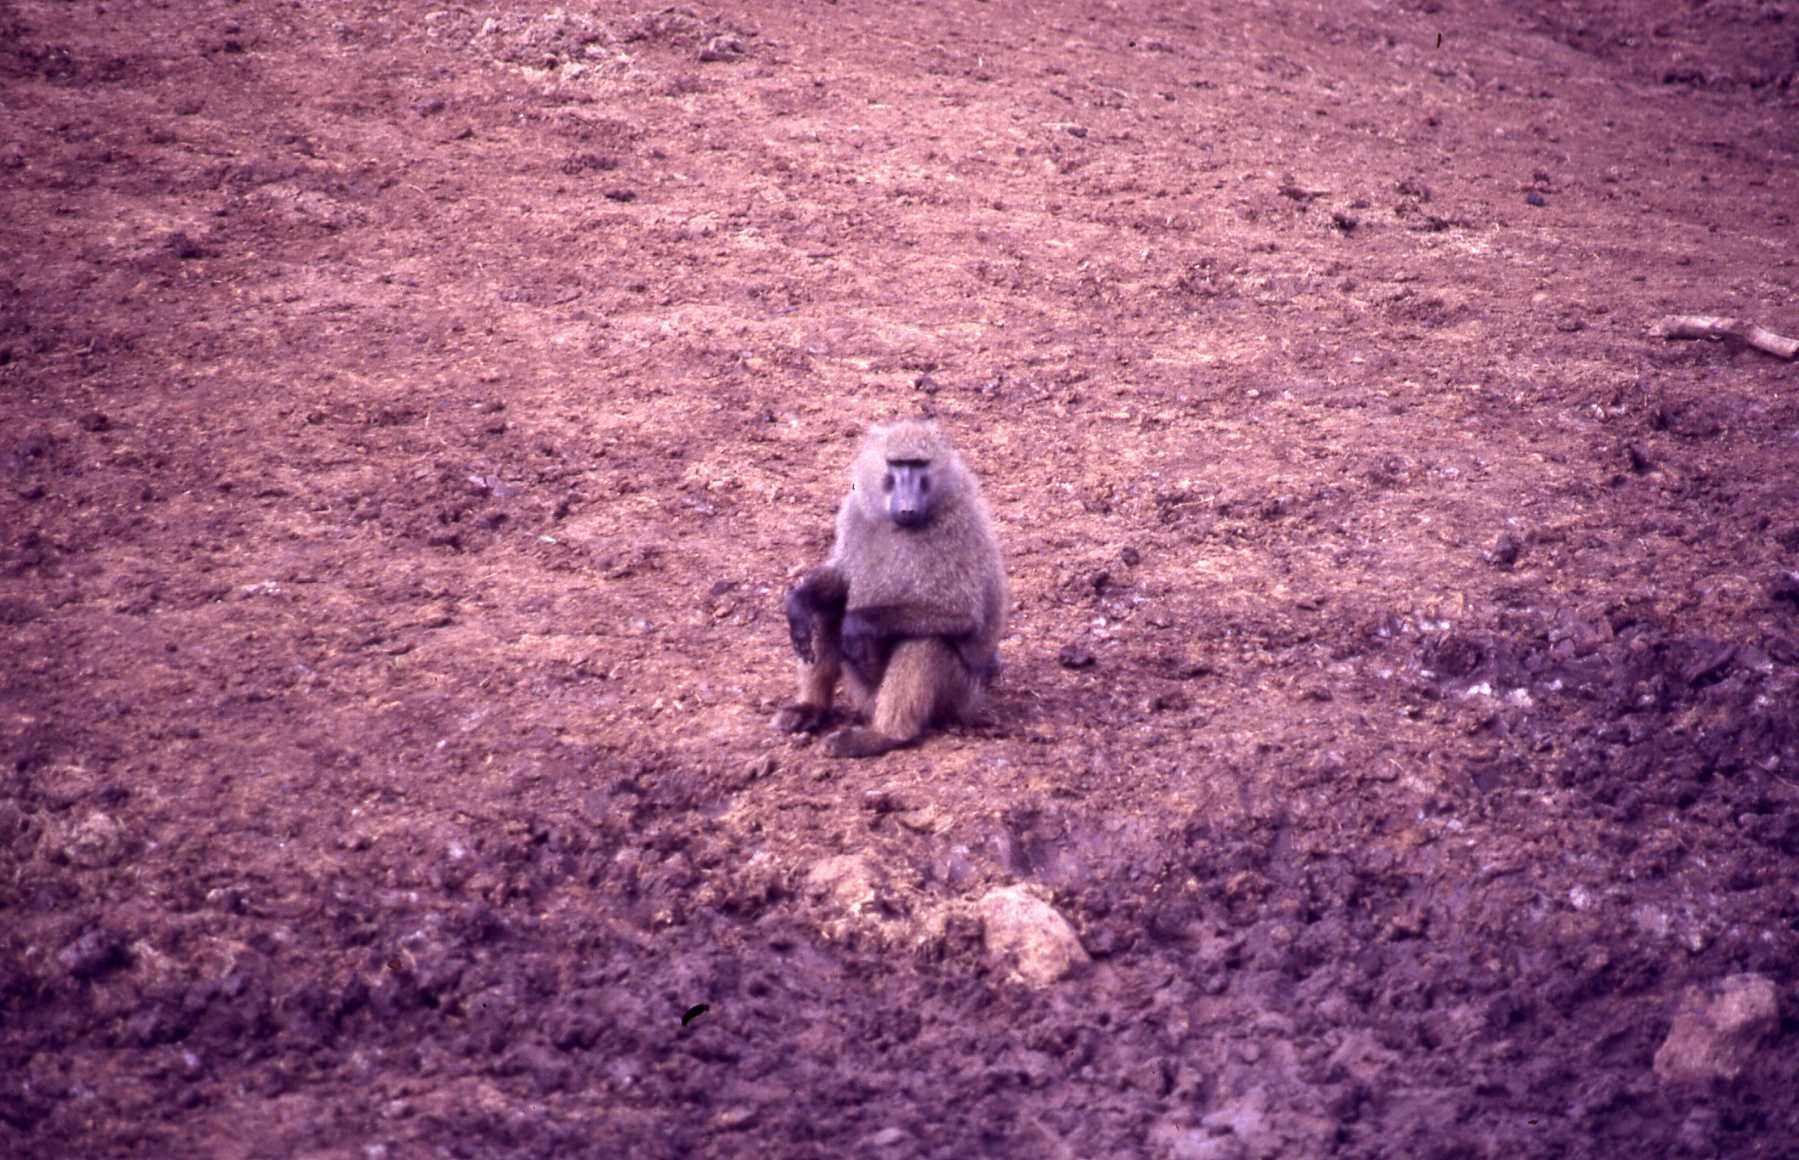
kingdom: Animalia
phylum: Chordata
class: Mammalia
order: Primates
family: Cercopithecidae
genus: Papio
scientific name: Papio anubis
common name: Olive baboon
